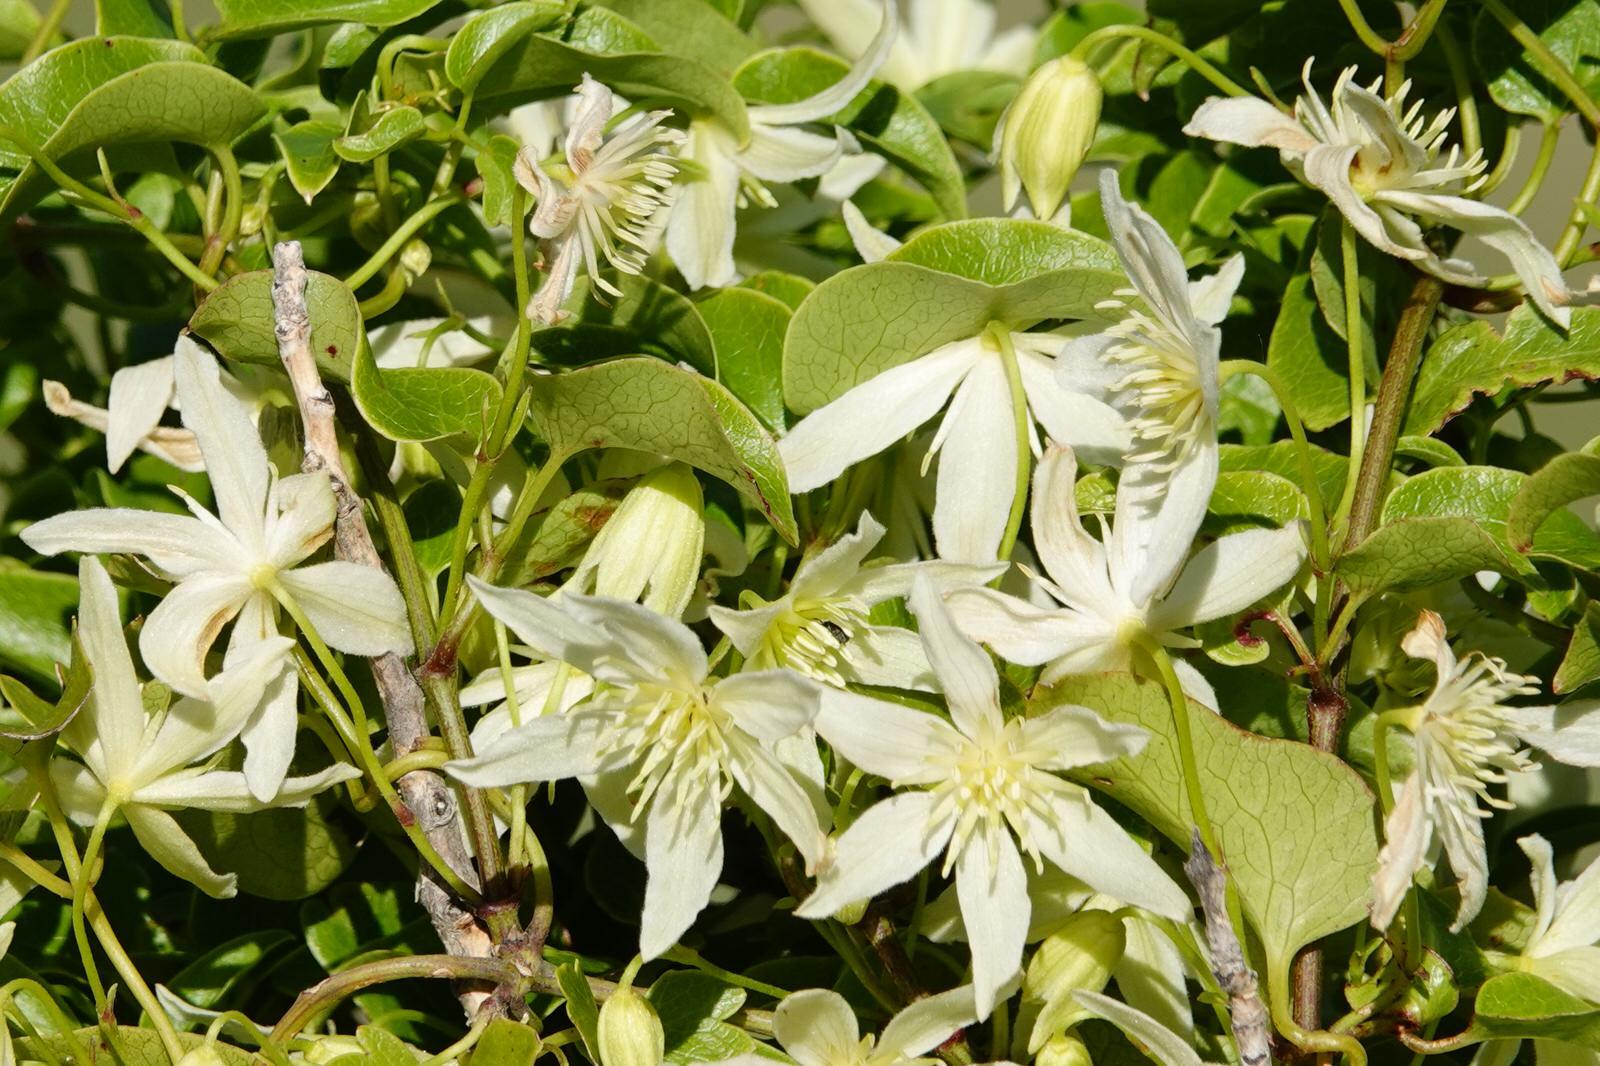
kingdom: Plantae
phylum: Tracheophyta
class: Magnoliopsida
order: Ranunculales
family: Ranunculaceae
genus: Clematis
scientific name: Clematis forsteri
